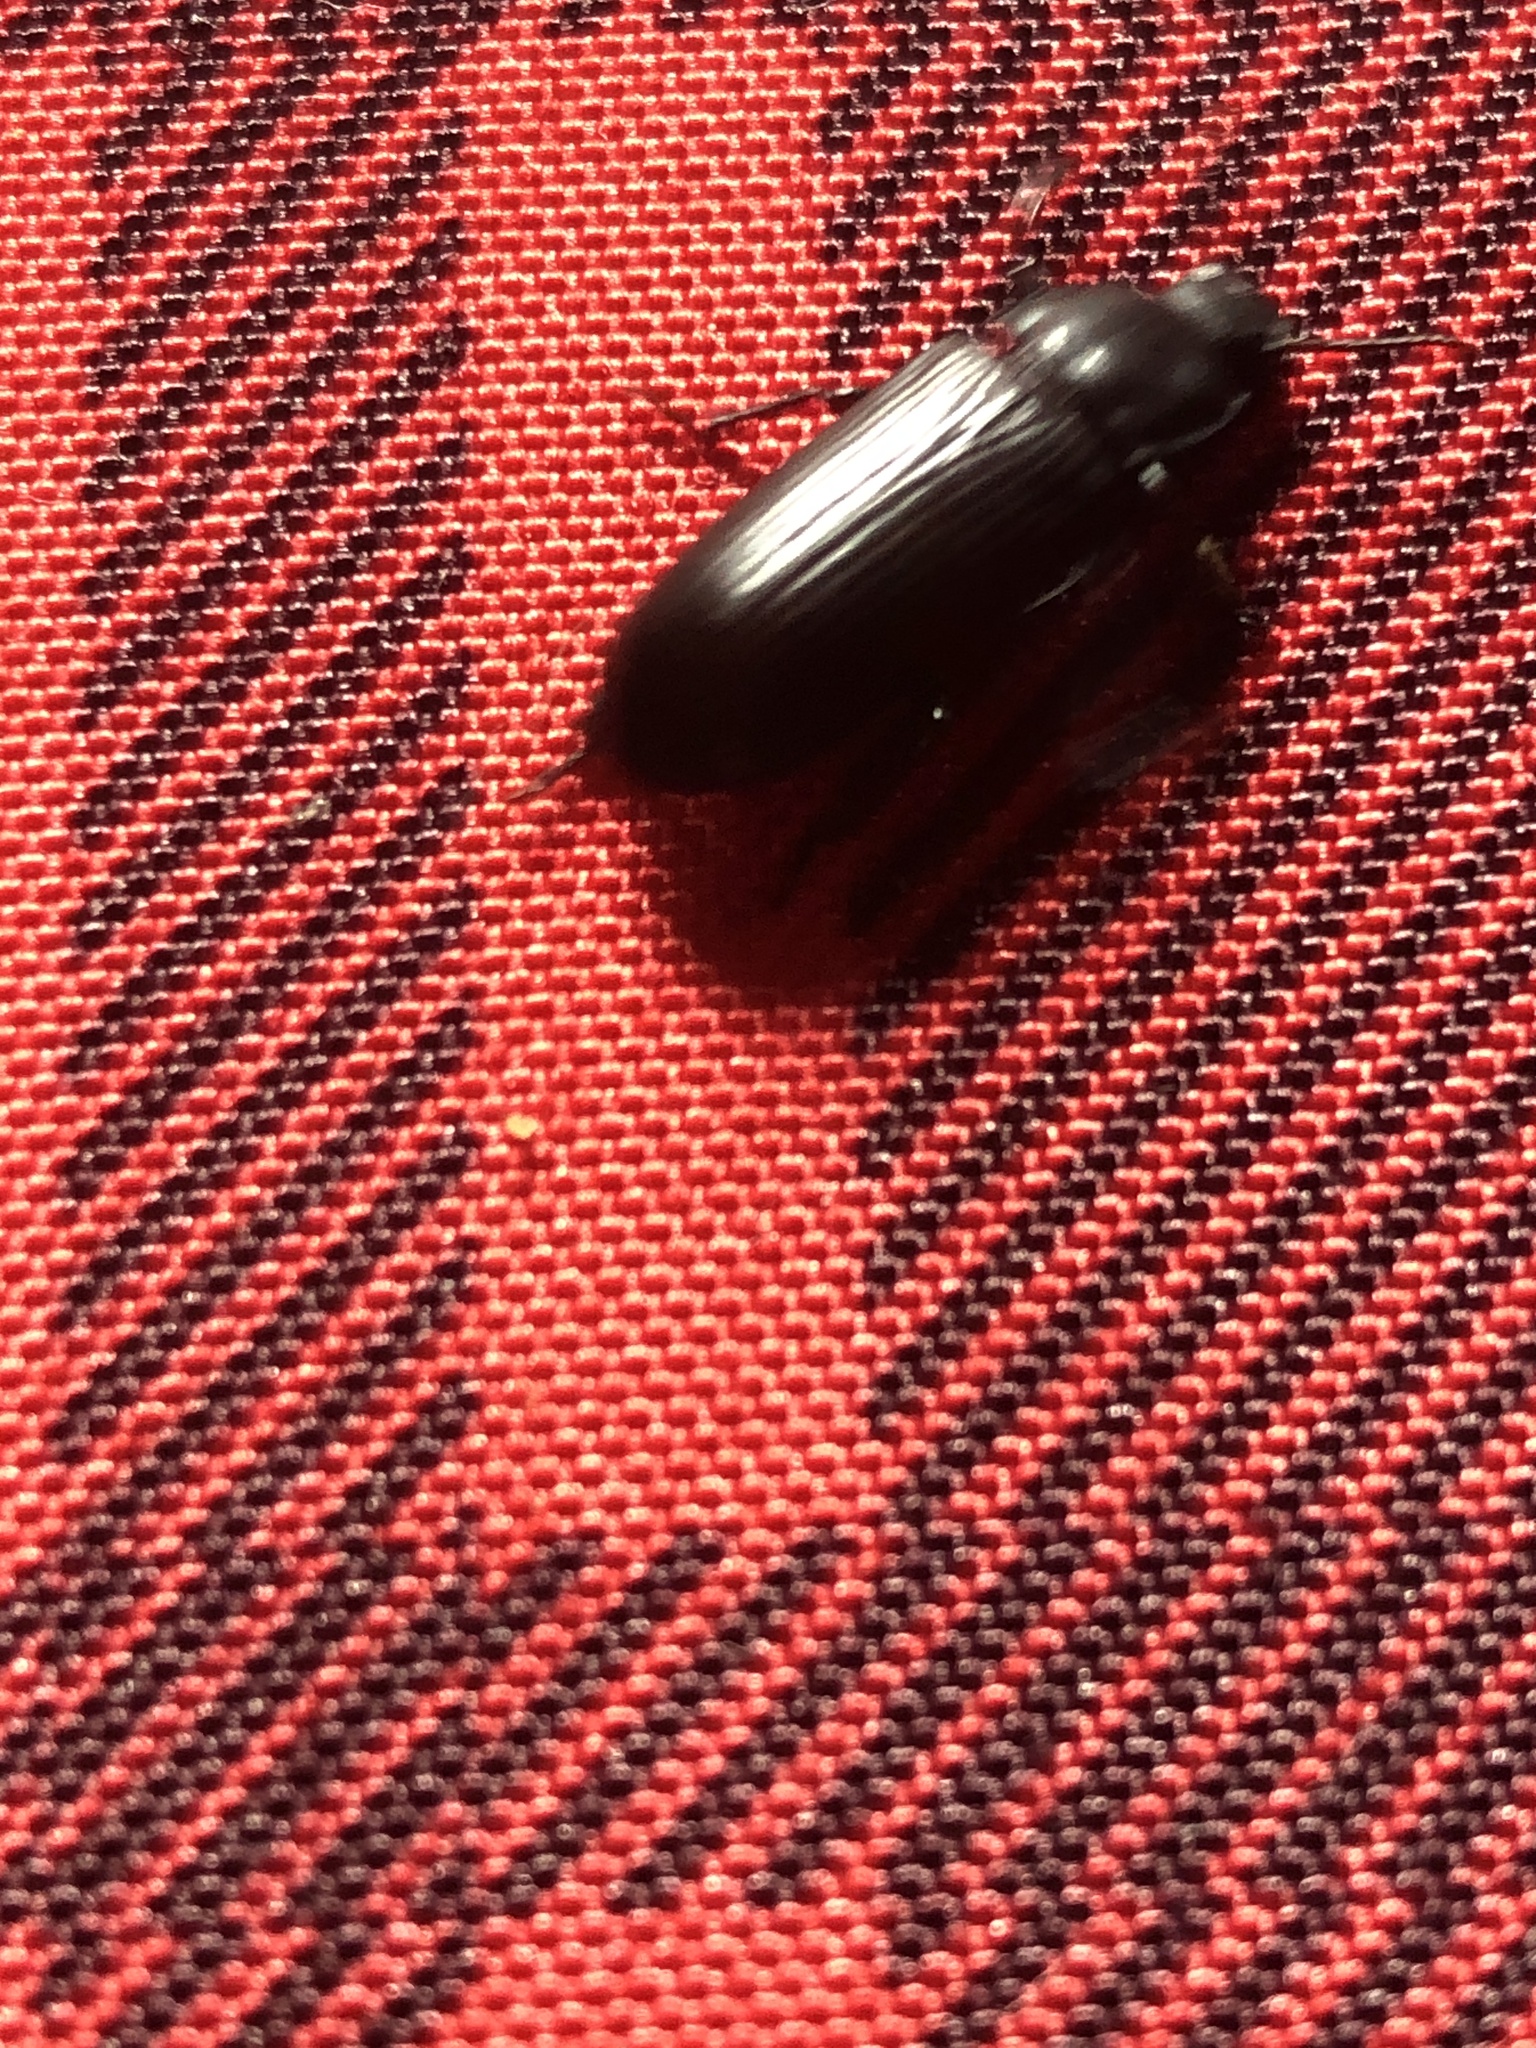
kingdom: Animalia
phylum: Arthropoda
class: Insecta
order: Coleoptera
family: Tenebrionidae
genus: Tenebrio
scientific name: Tenebrio molitor
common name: Hardback beetle
